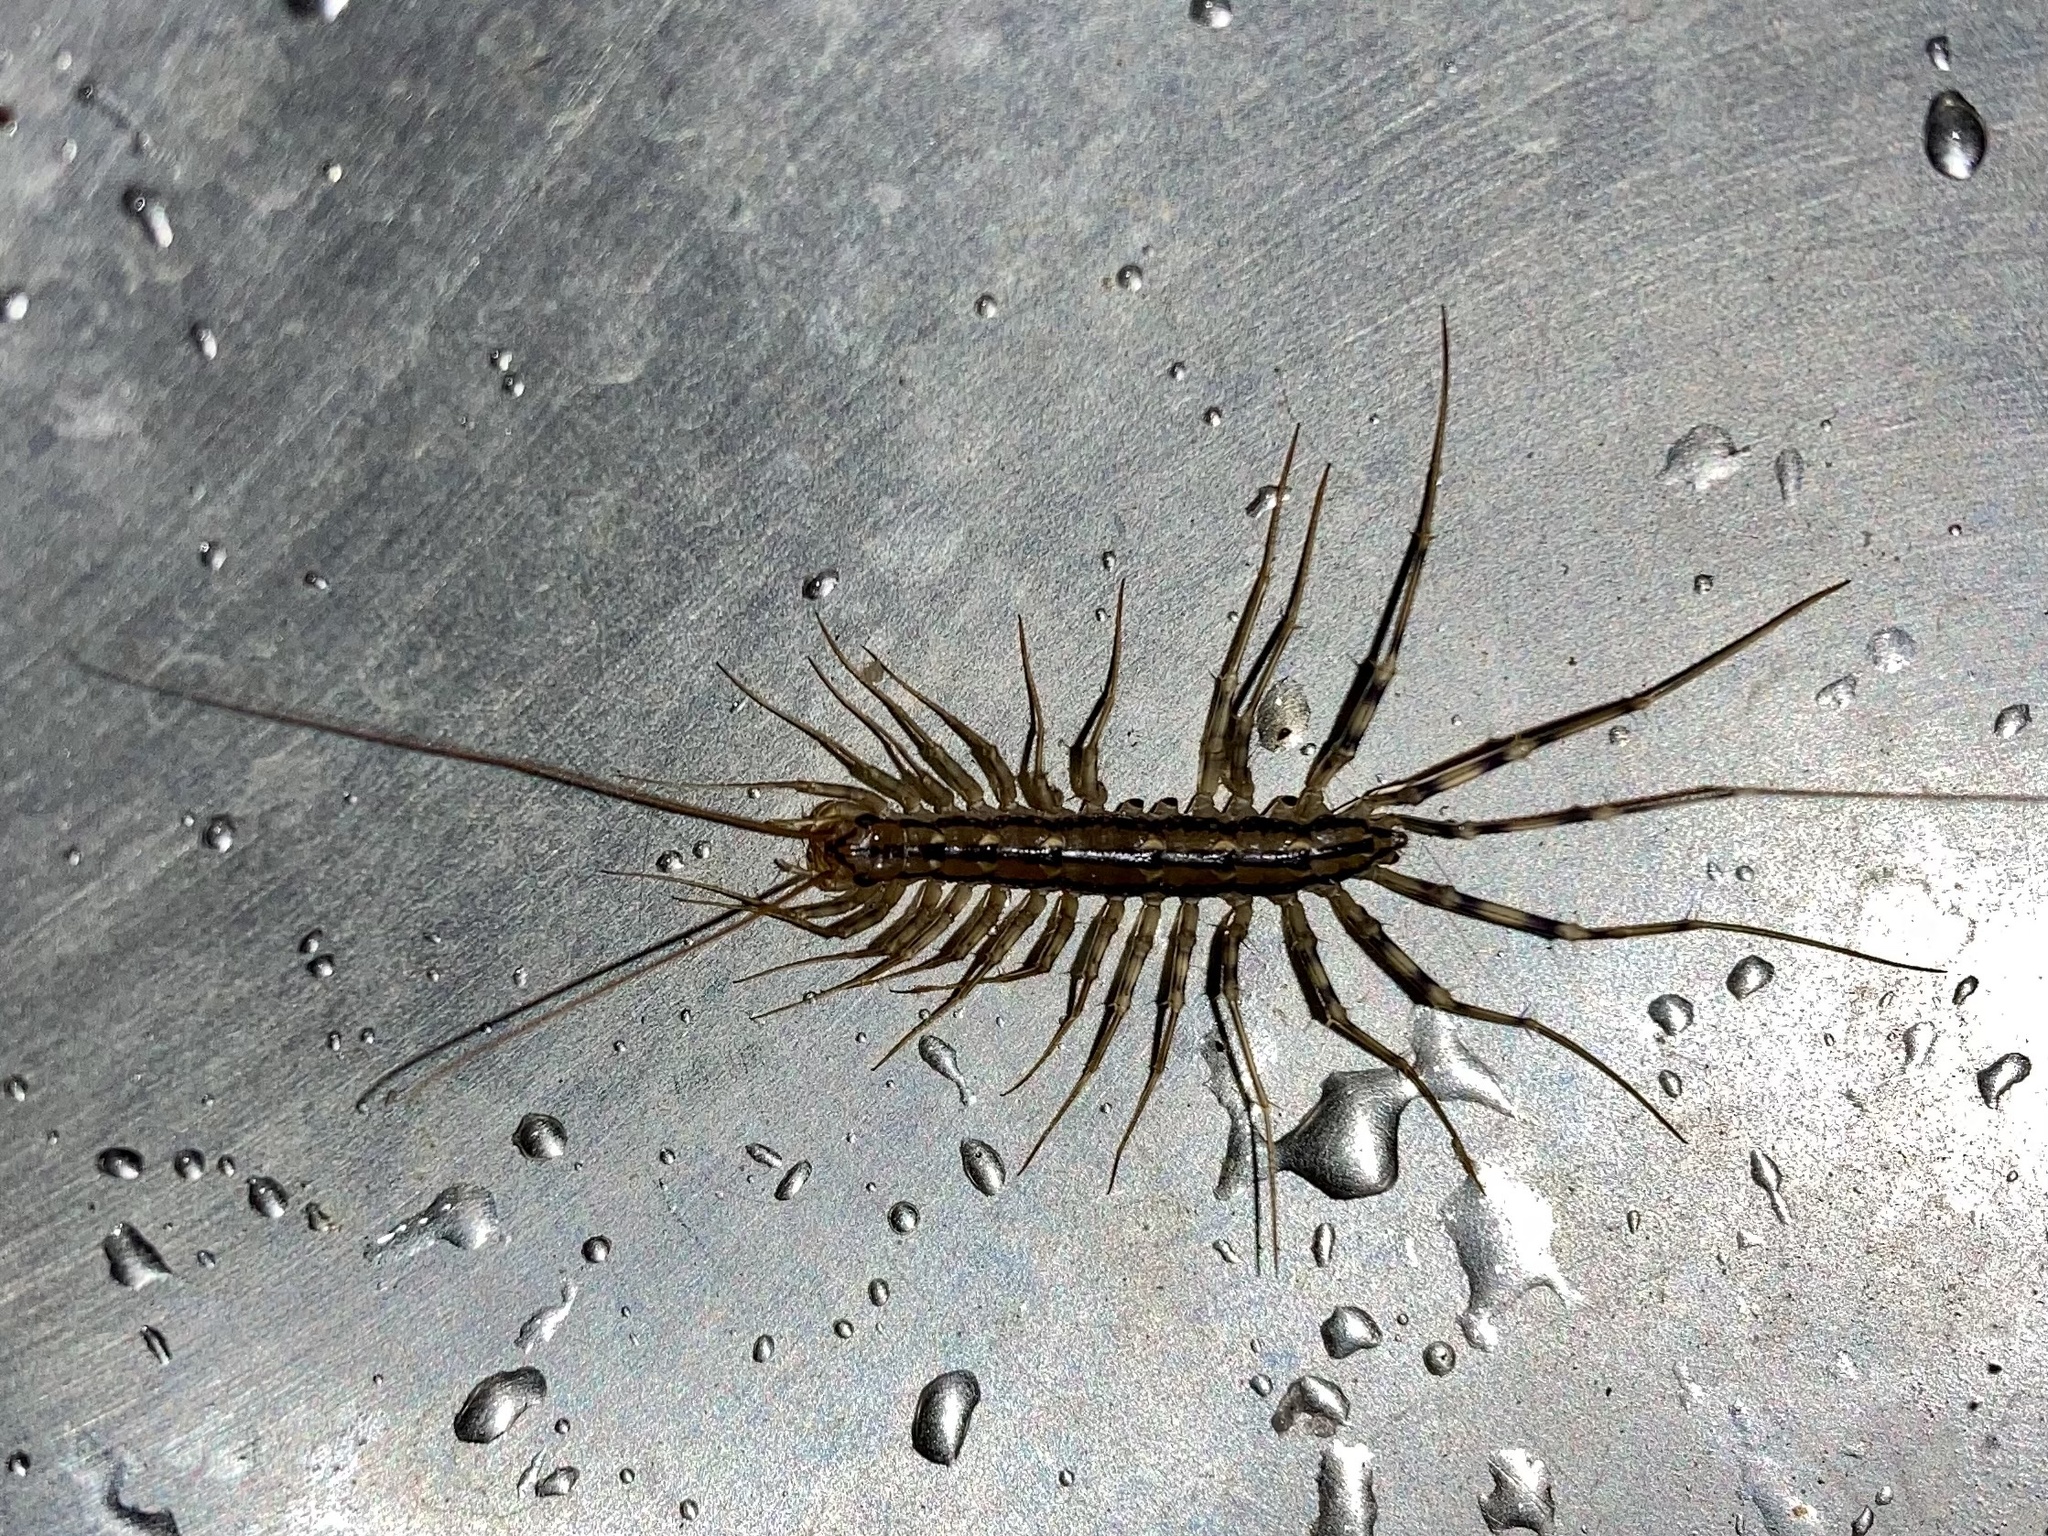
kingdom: Animalia
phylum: Arthropoda
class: Chilopoda
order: Scutigeromorpha
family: Scutigeridae
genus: Scutigera
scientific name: Scutigera coleoptrata
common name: House centipede
